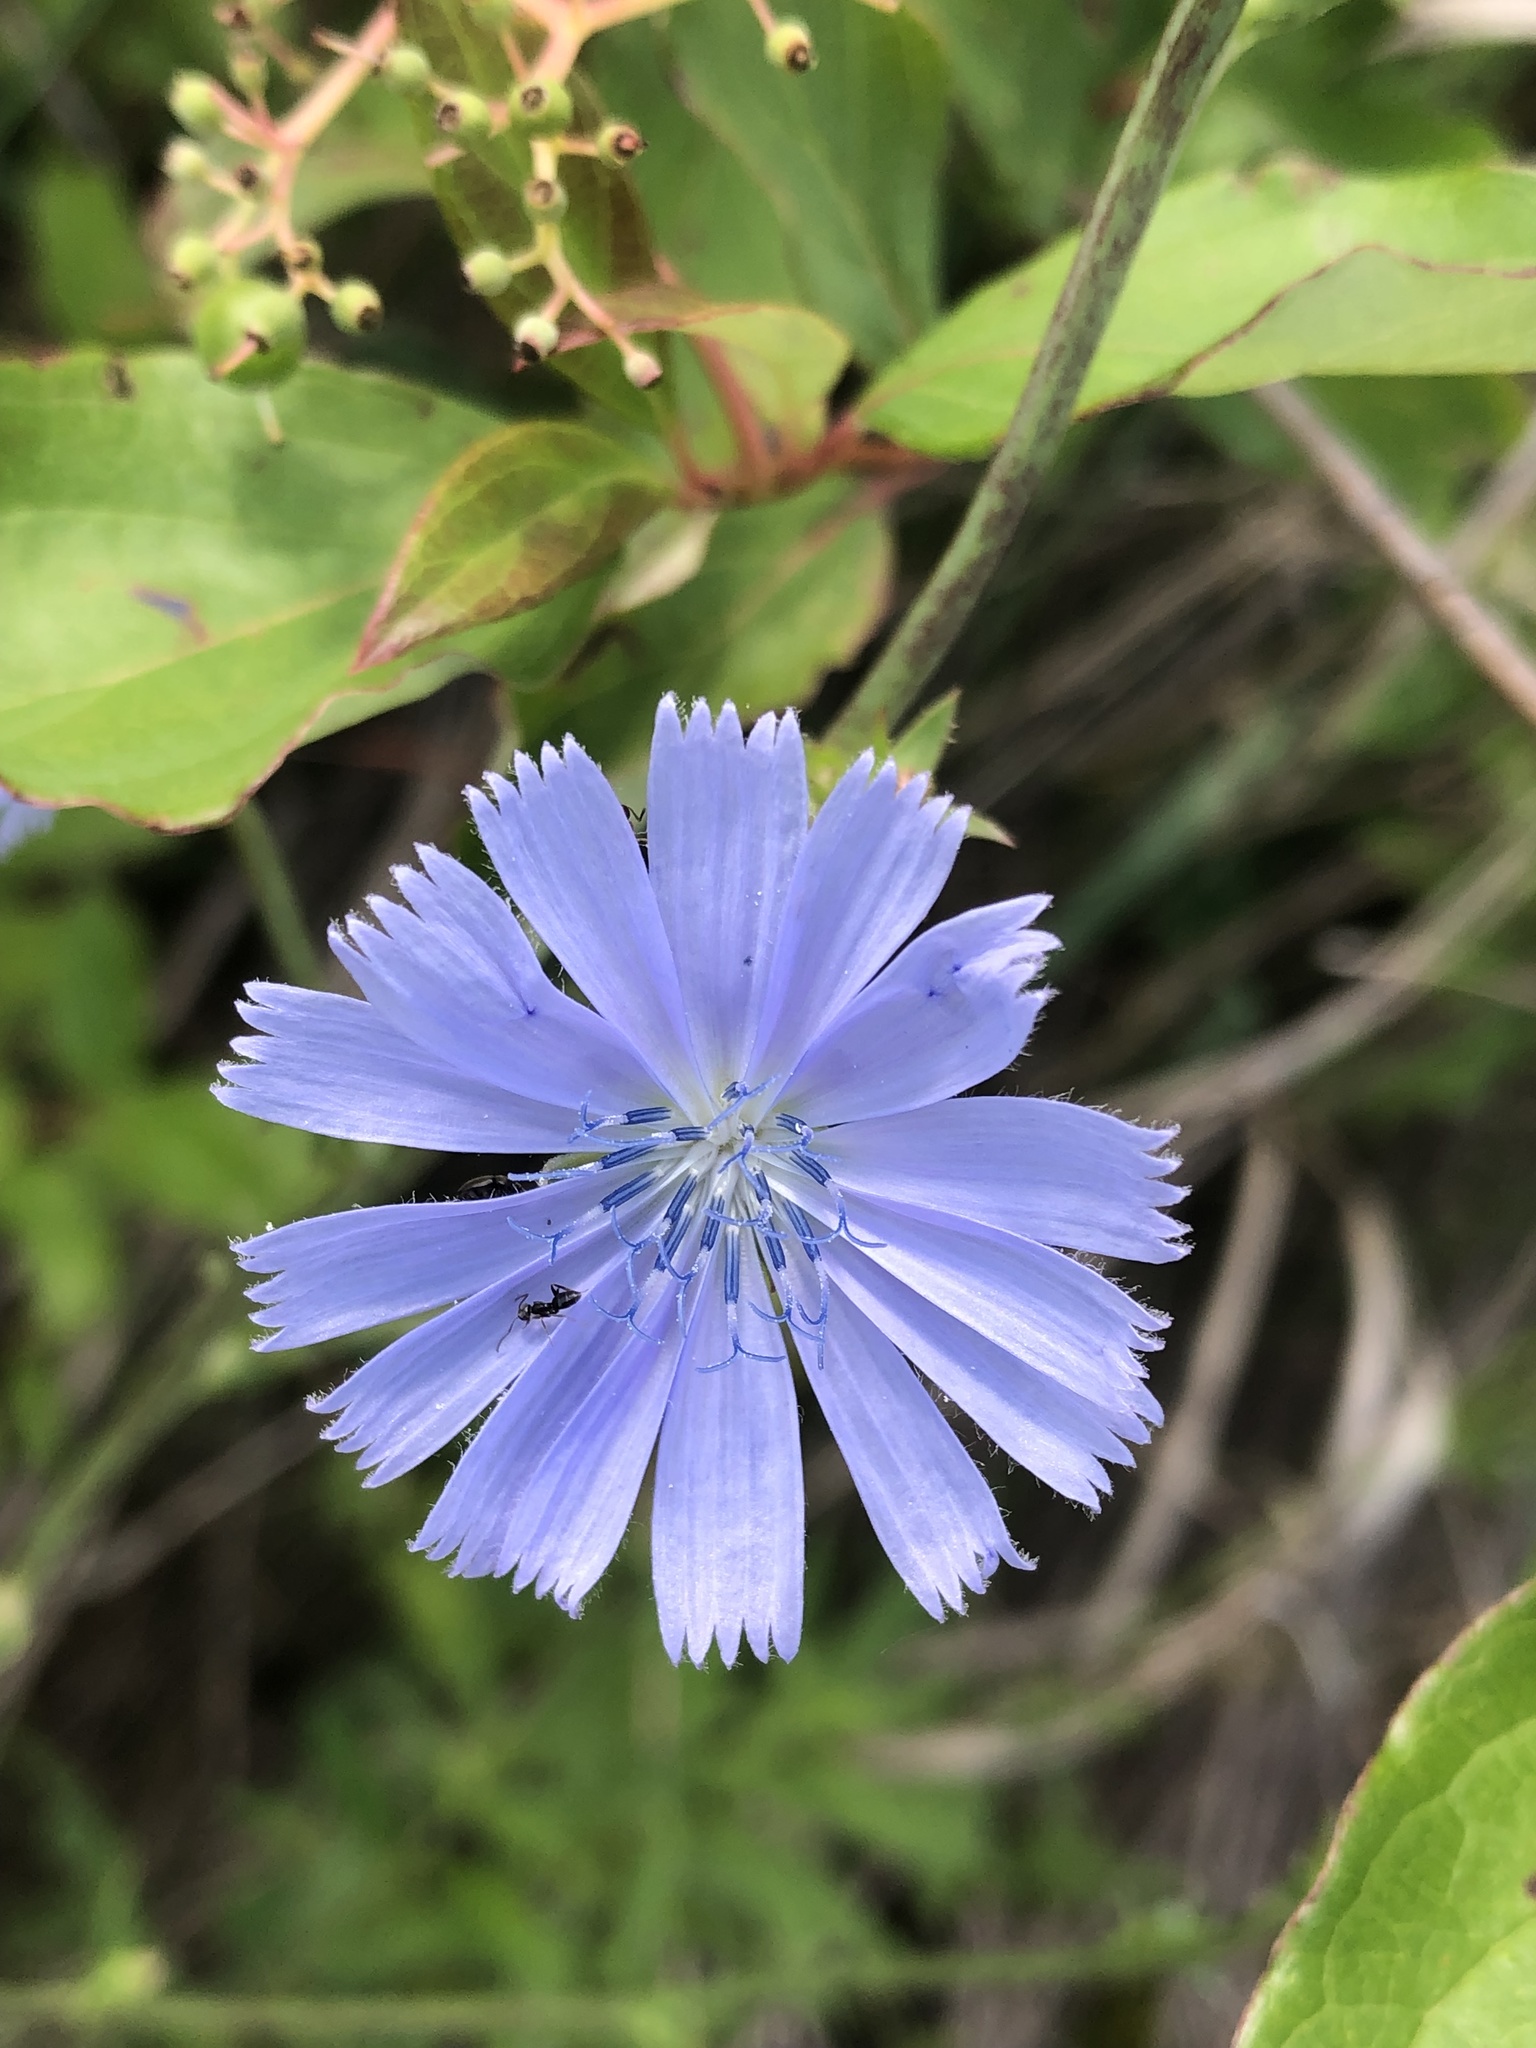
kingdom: Plantae
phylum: Tracheophyta
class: Magnoliopsida
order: Asterales
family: Asteraceae
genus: Cichorium
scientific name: Cichorium intybus
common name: Chicory
